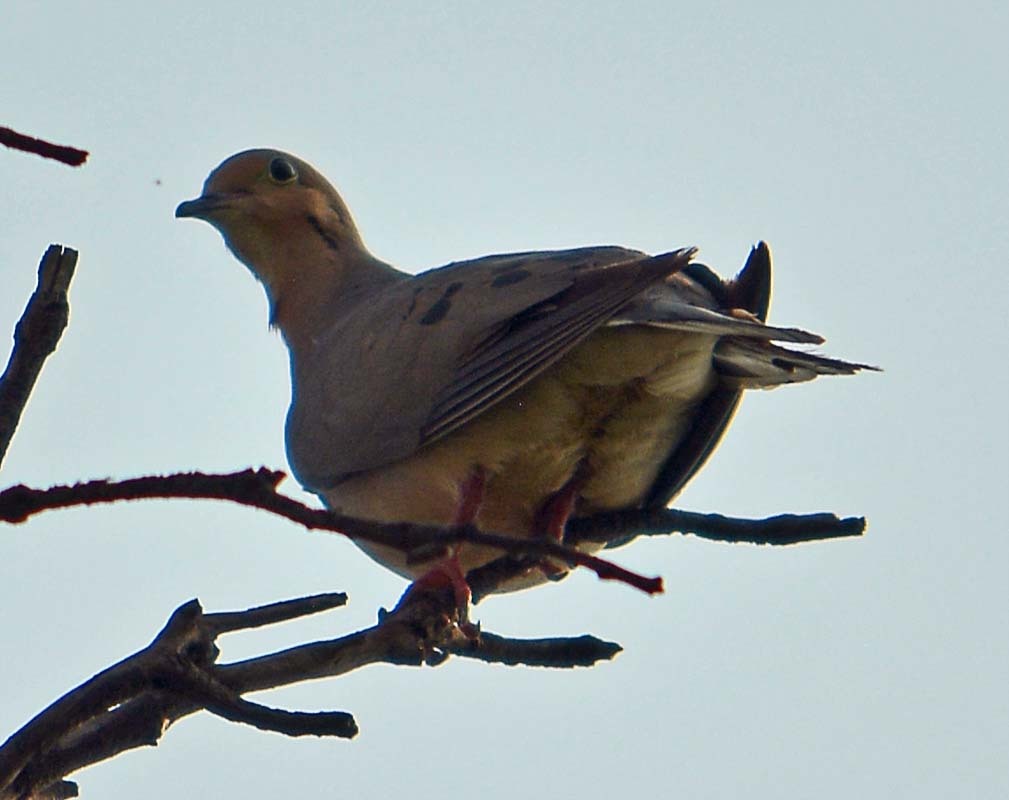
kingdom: Animalia
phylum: Chordata
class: Aves
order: Columbiformes
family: Columbidae
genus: Zenaida
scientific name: Zenaida macroura
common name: Mourning dove
